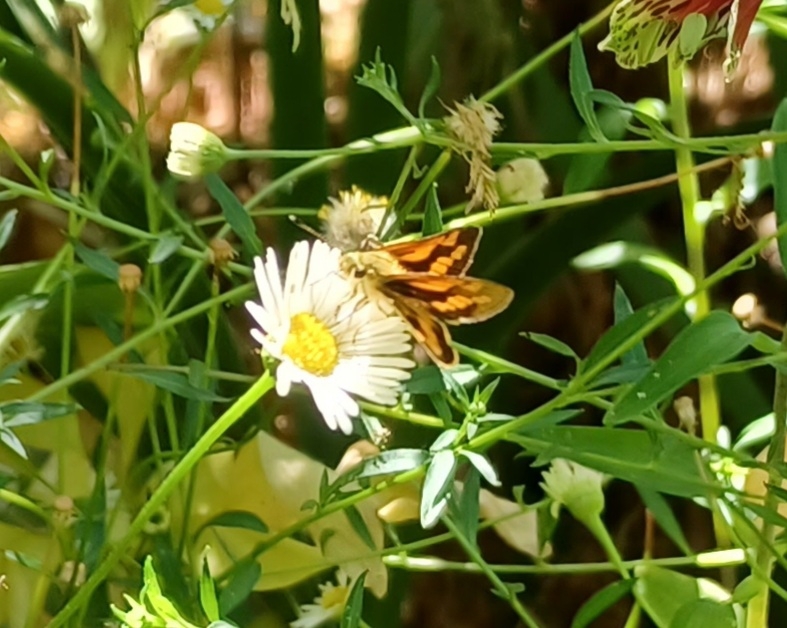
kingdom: Animalia
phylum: Arthropoda
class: Insecta
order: Lepidoptera
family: Hesperiidae
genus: Ocybadistes
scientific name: Ocybadistes walkeri
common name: Yellow-banded dart
